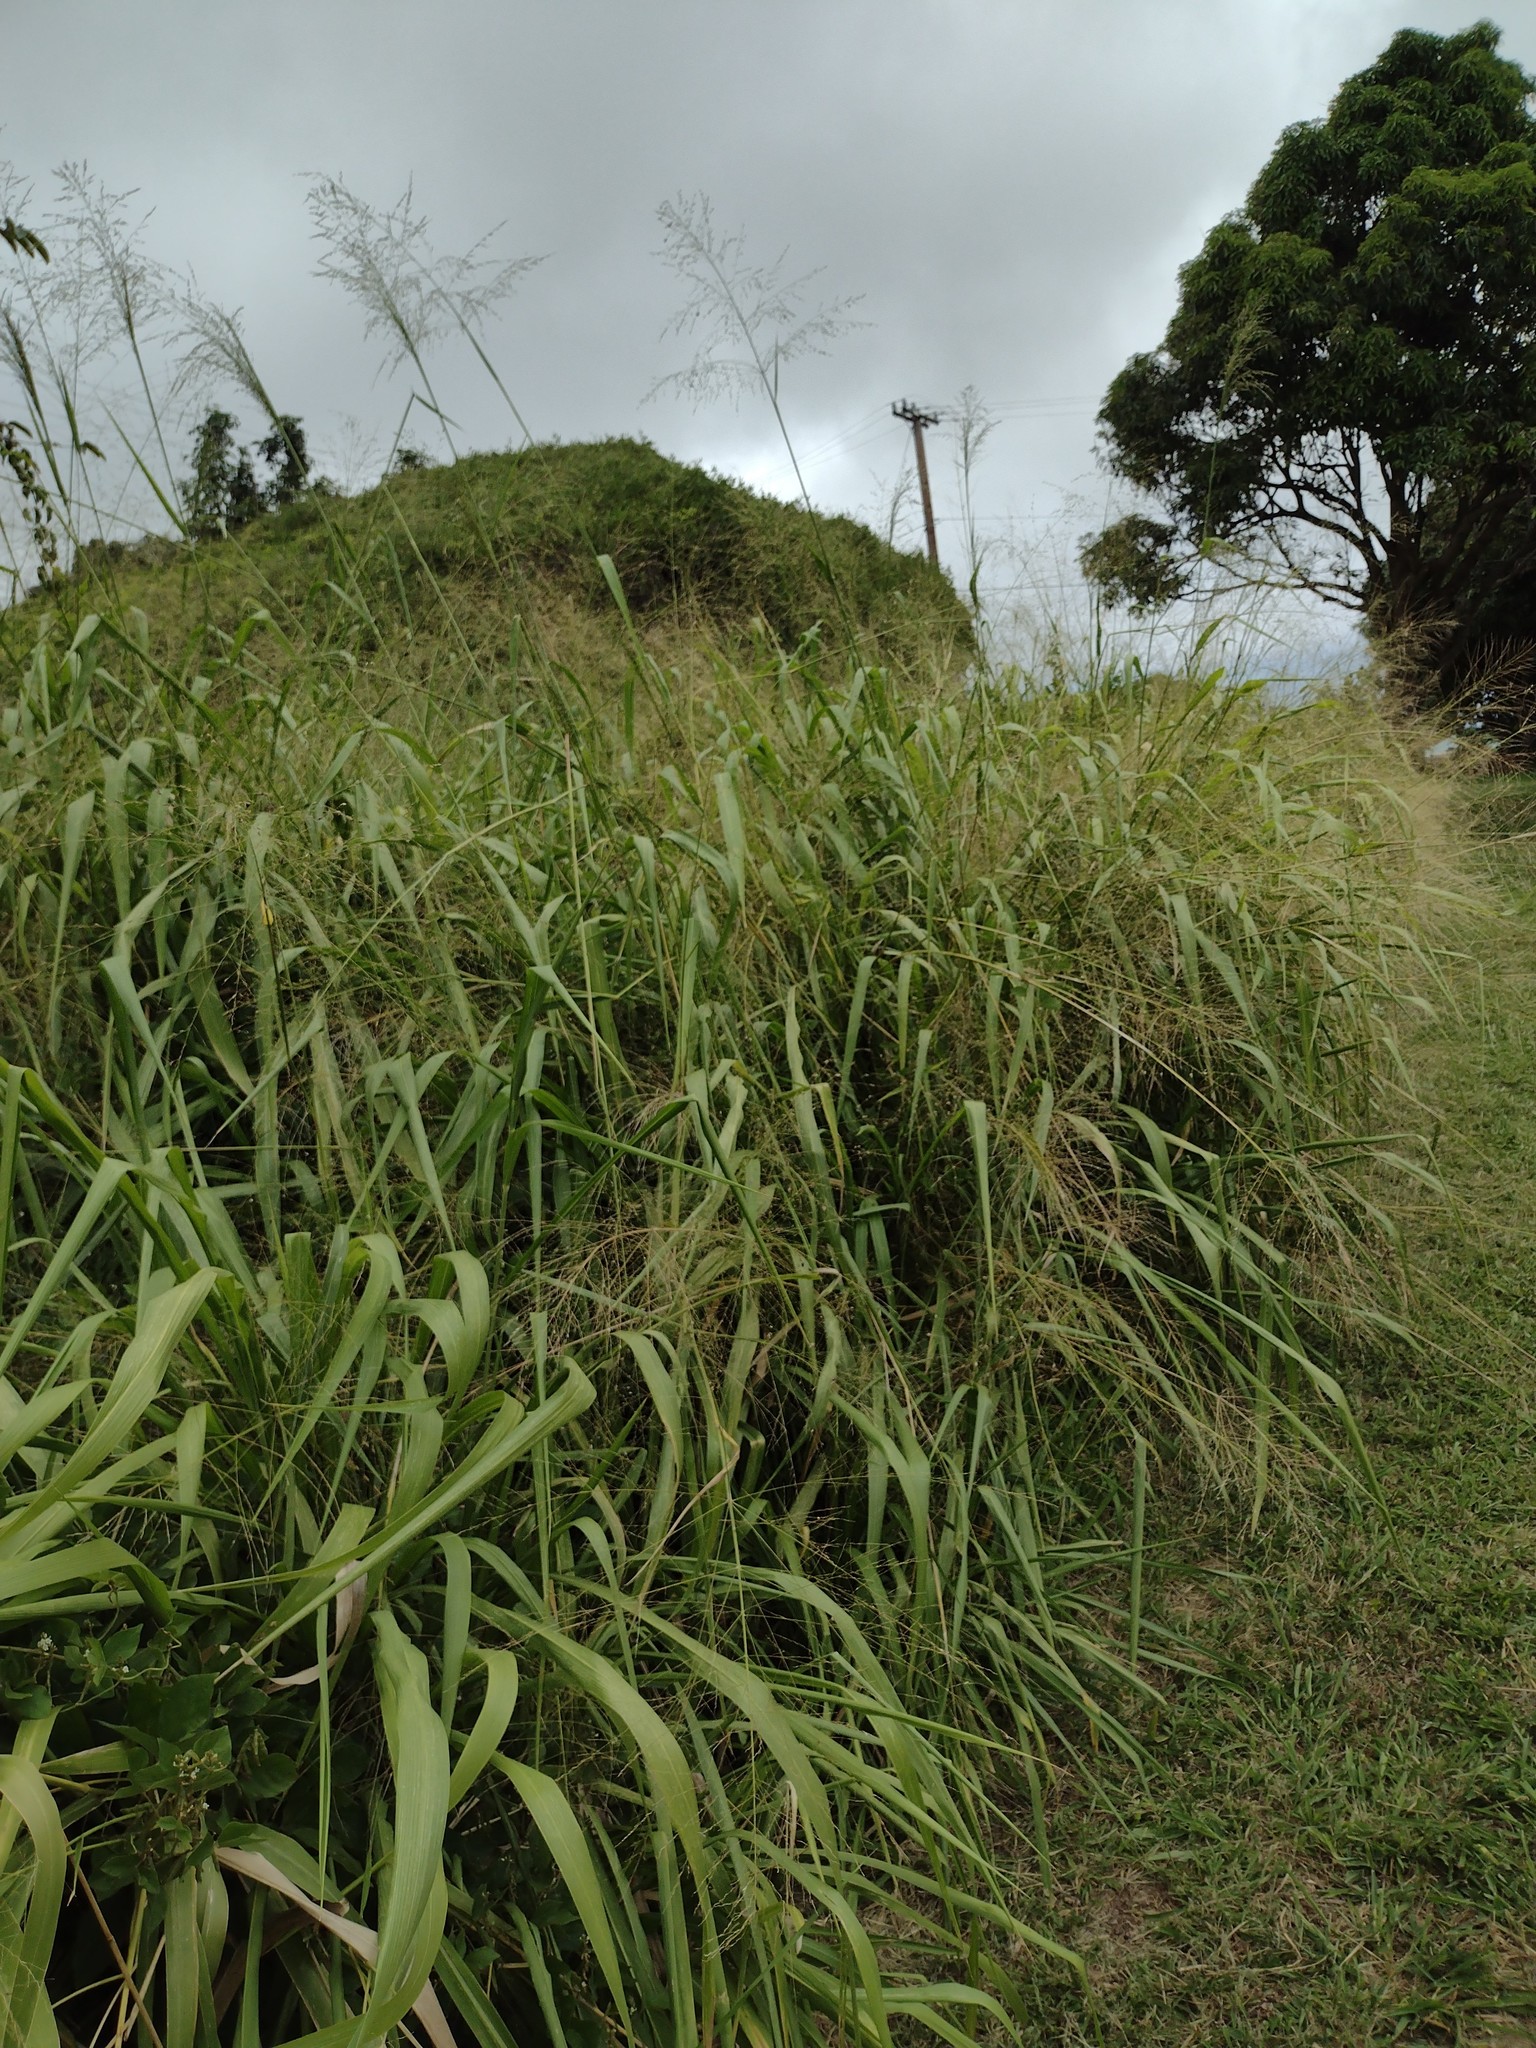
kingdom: Plantae
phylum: Tracheophyta
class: Liliopsida
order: Poales
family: Poaceae
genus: Megathyrsus
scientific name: Megathyrsus maximus
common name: Guineagrass
